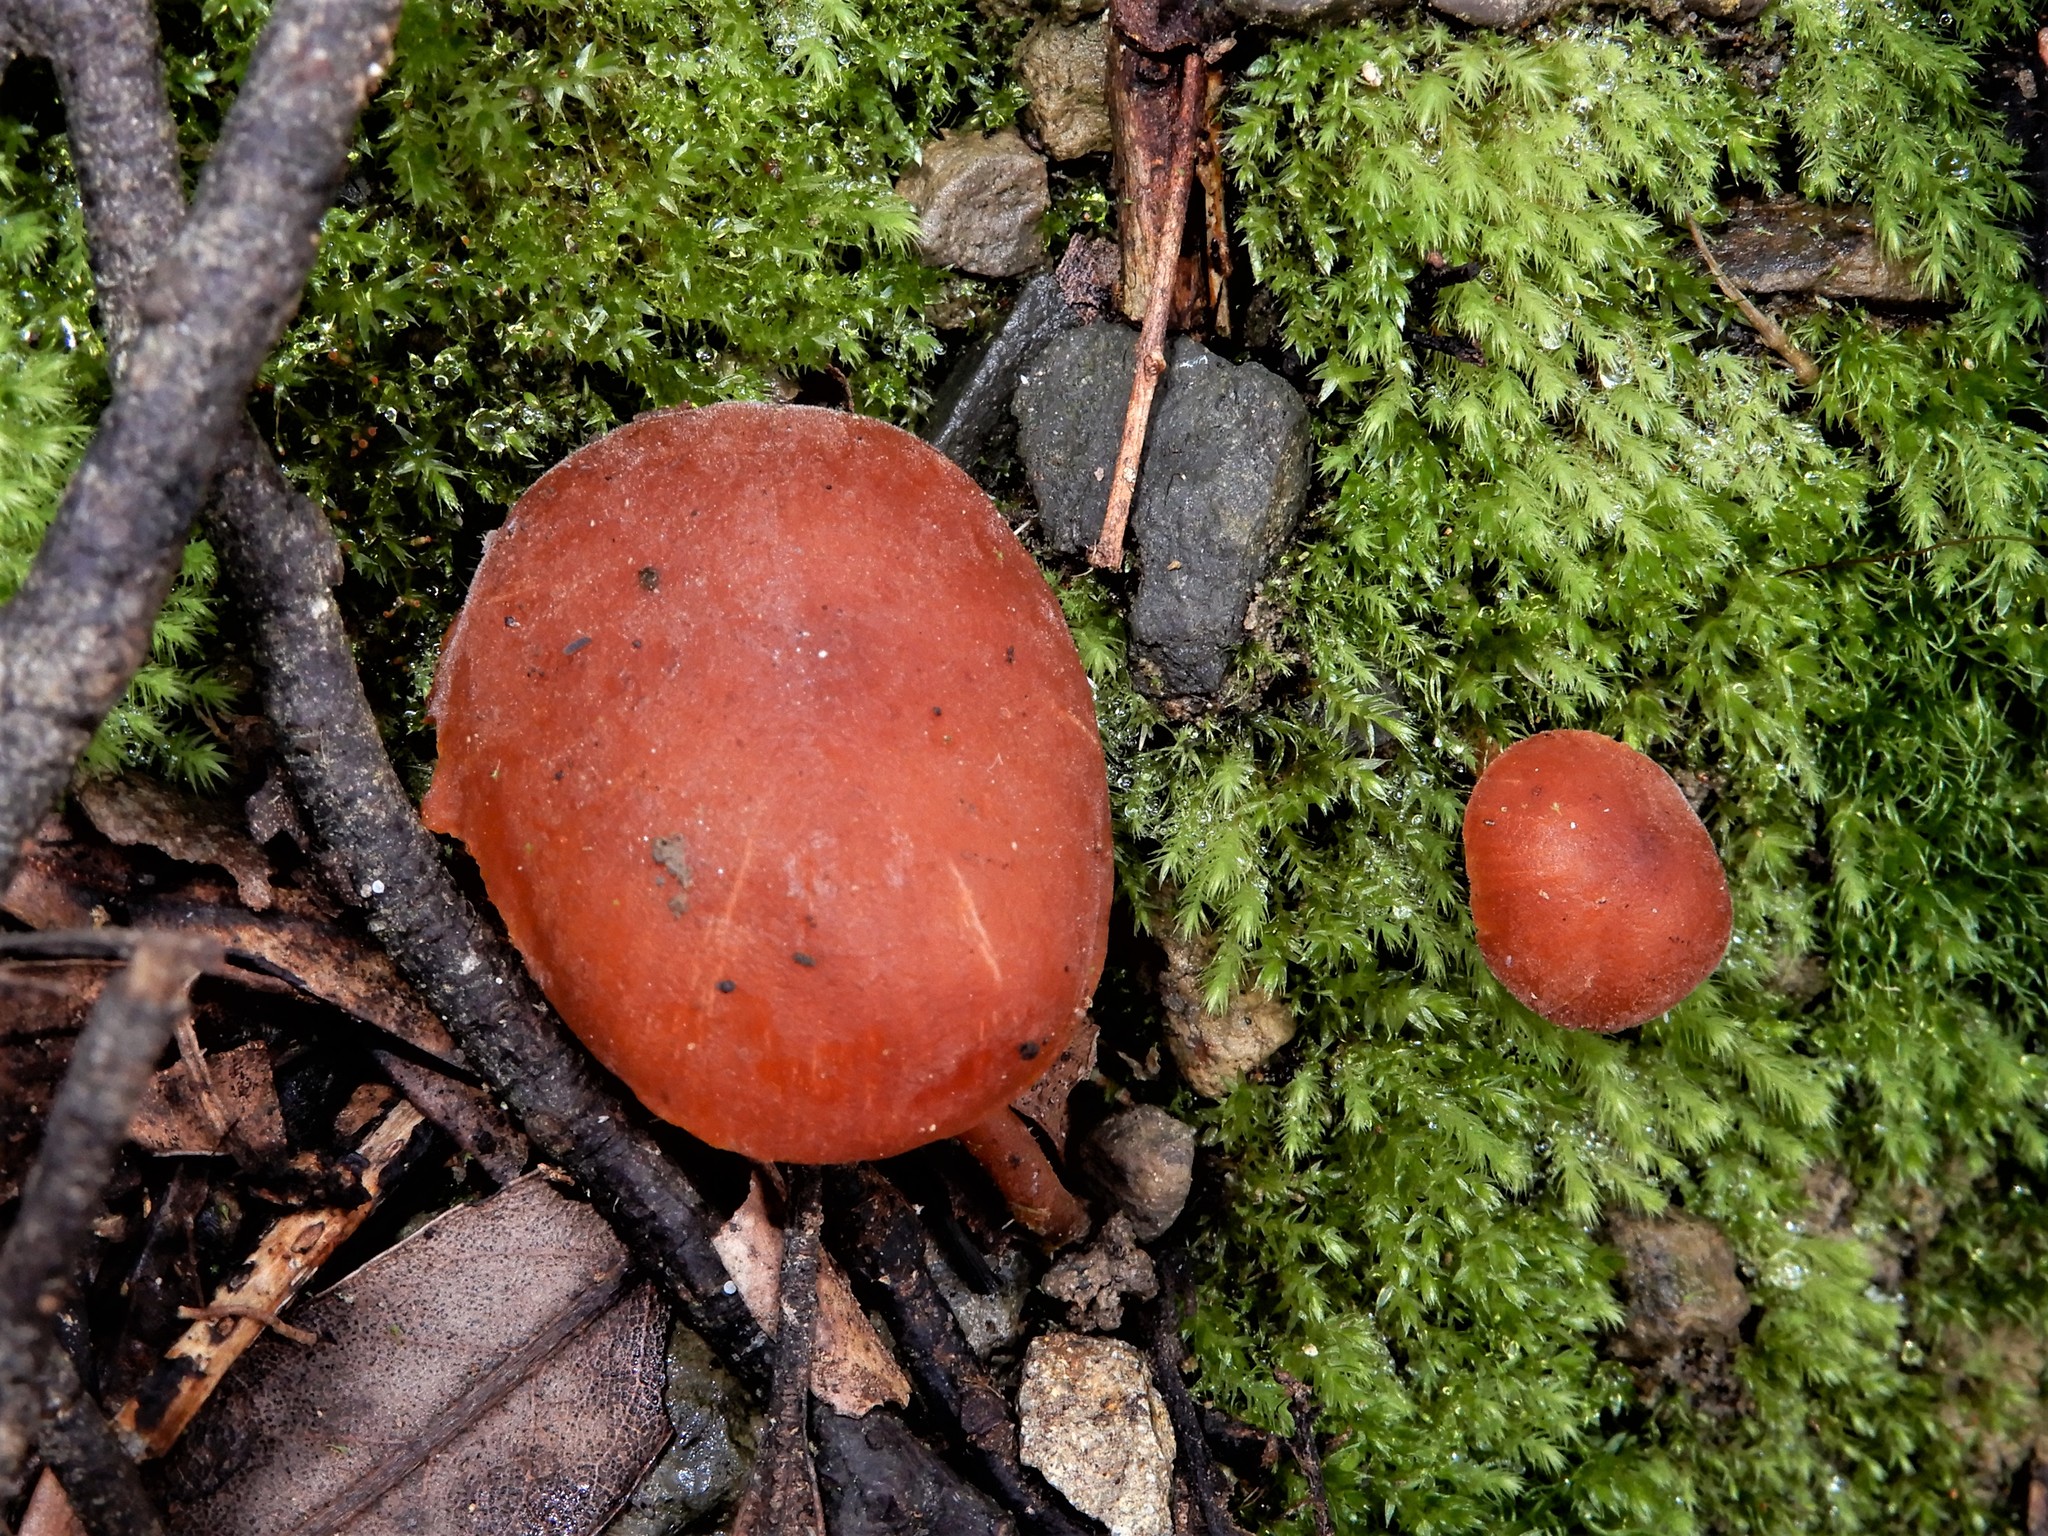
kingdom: Fungi
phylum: Basidiomycota
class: Agaricomycetes
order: Agaricales
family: Macrocystidiaceae
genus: Macrocystidia
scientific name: Macrocystidia
